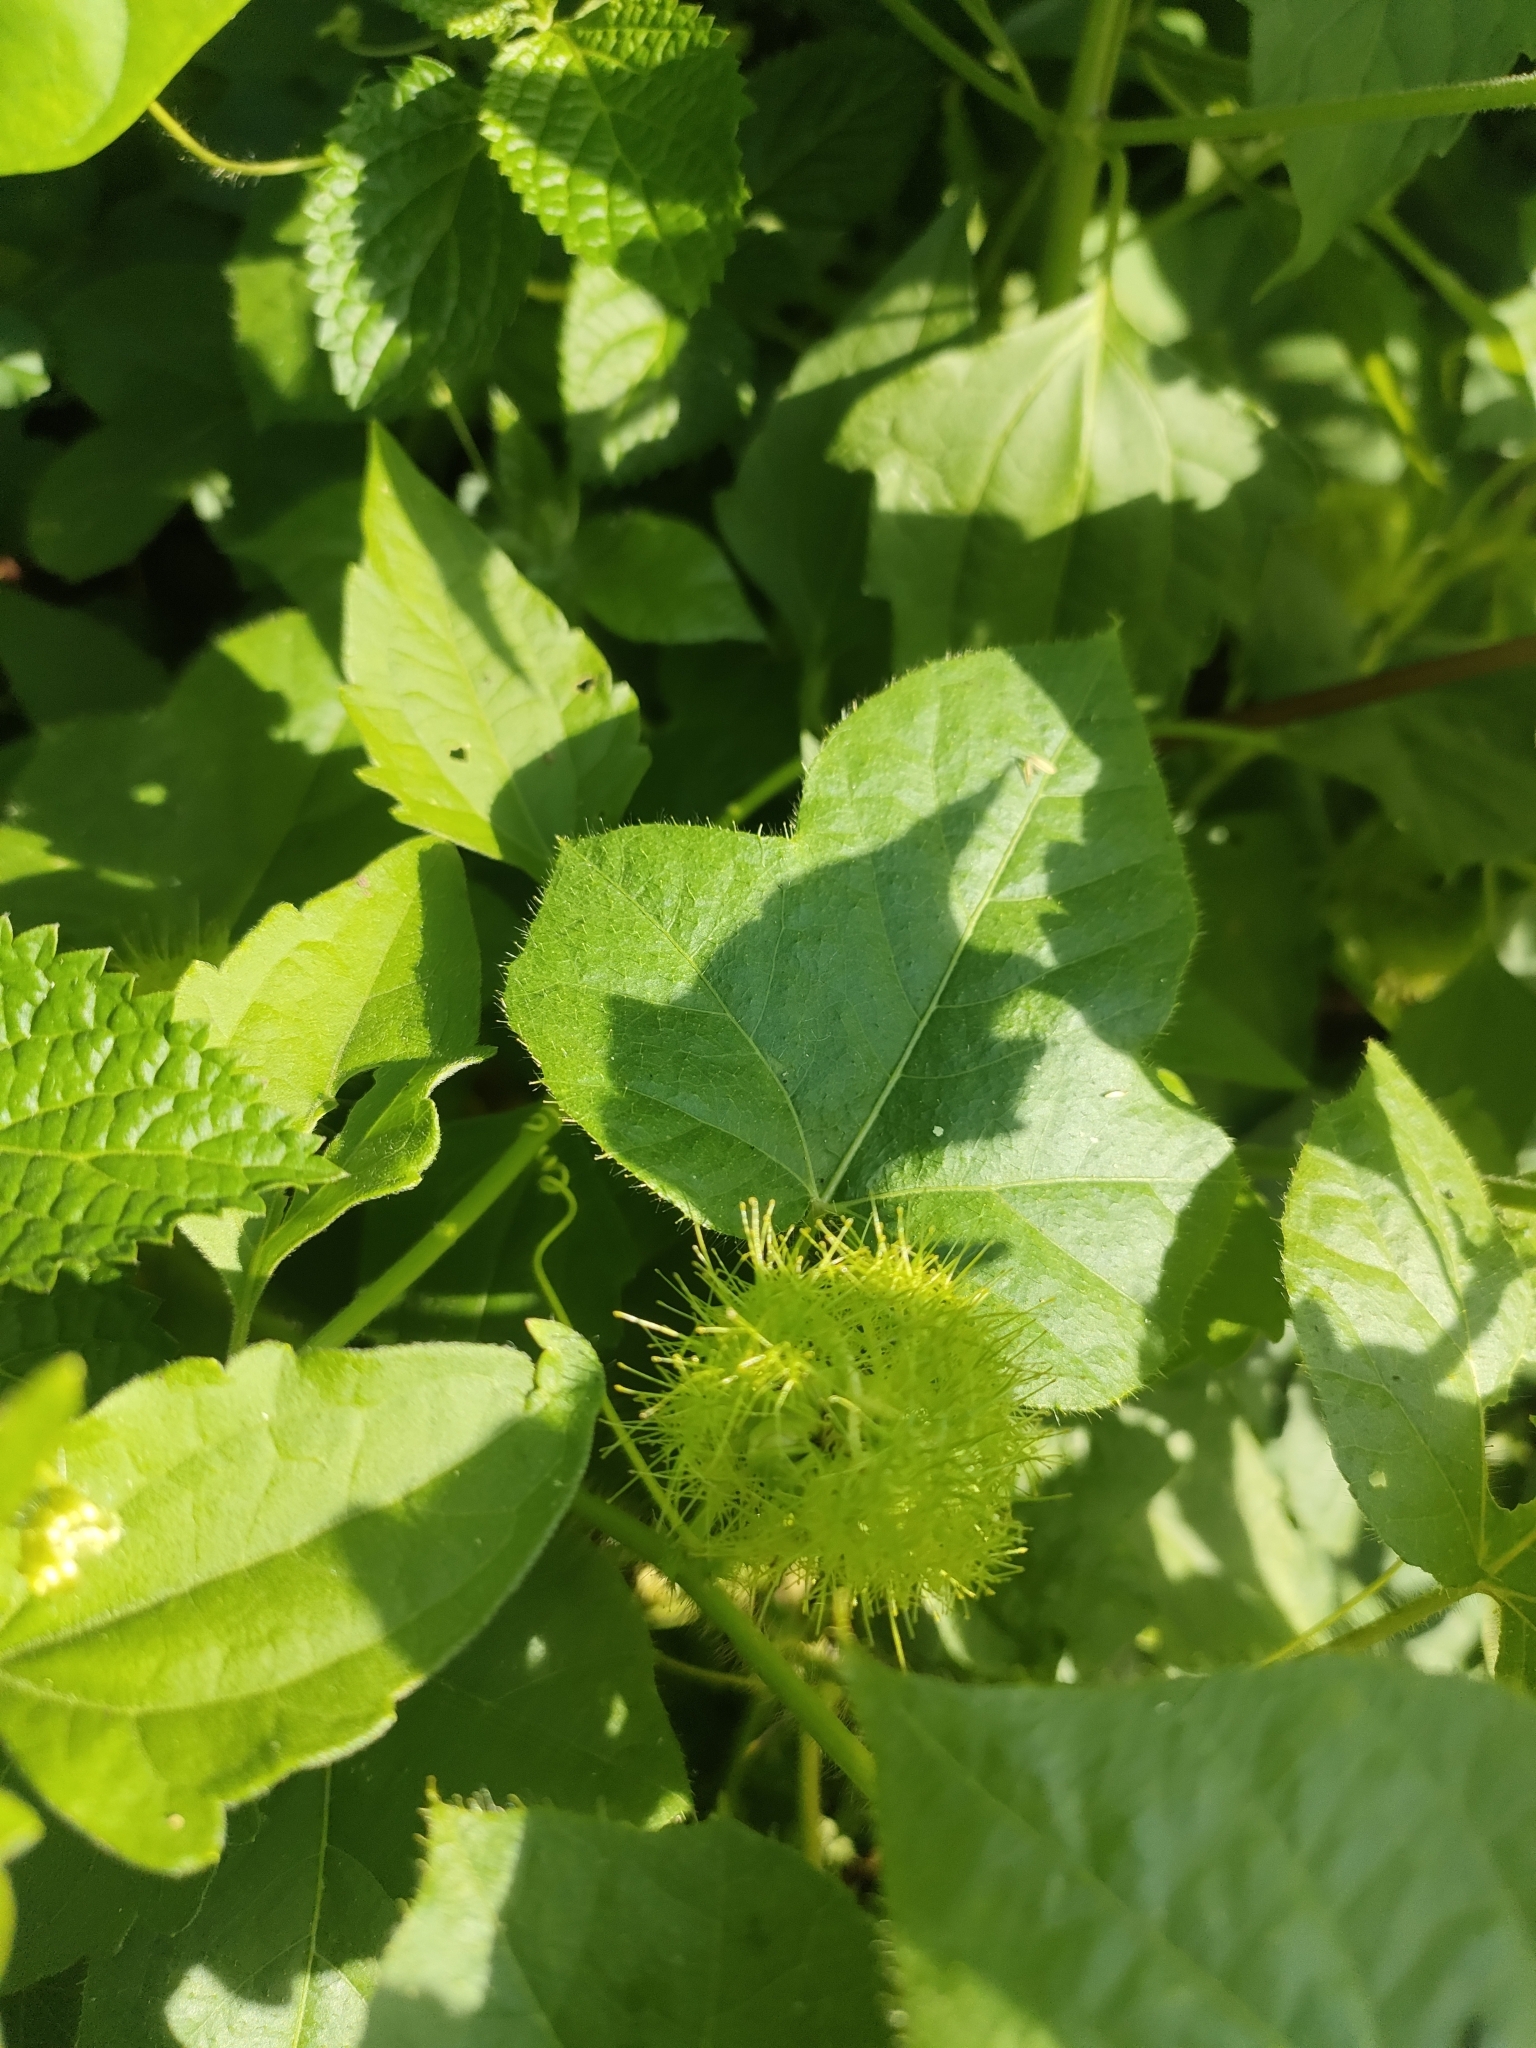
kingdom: Plantae
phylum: Tracheophyta
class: Magnoliopsida
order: Malpighiales
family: Passifloraceae
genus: Passiflora
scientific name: Passiflora vesicaria
